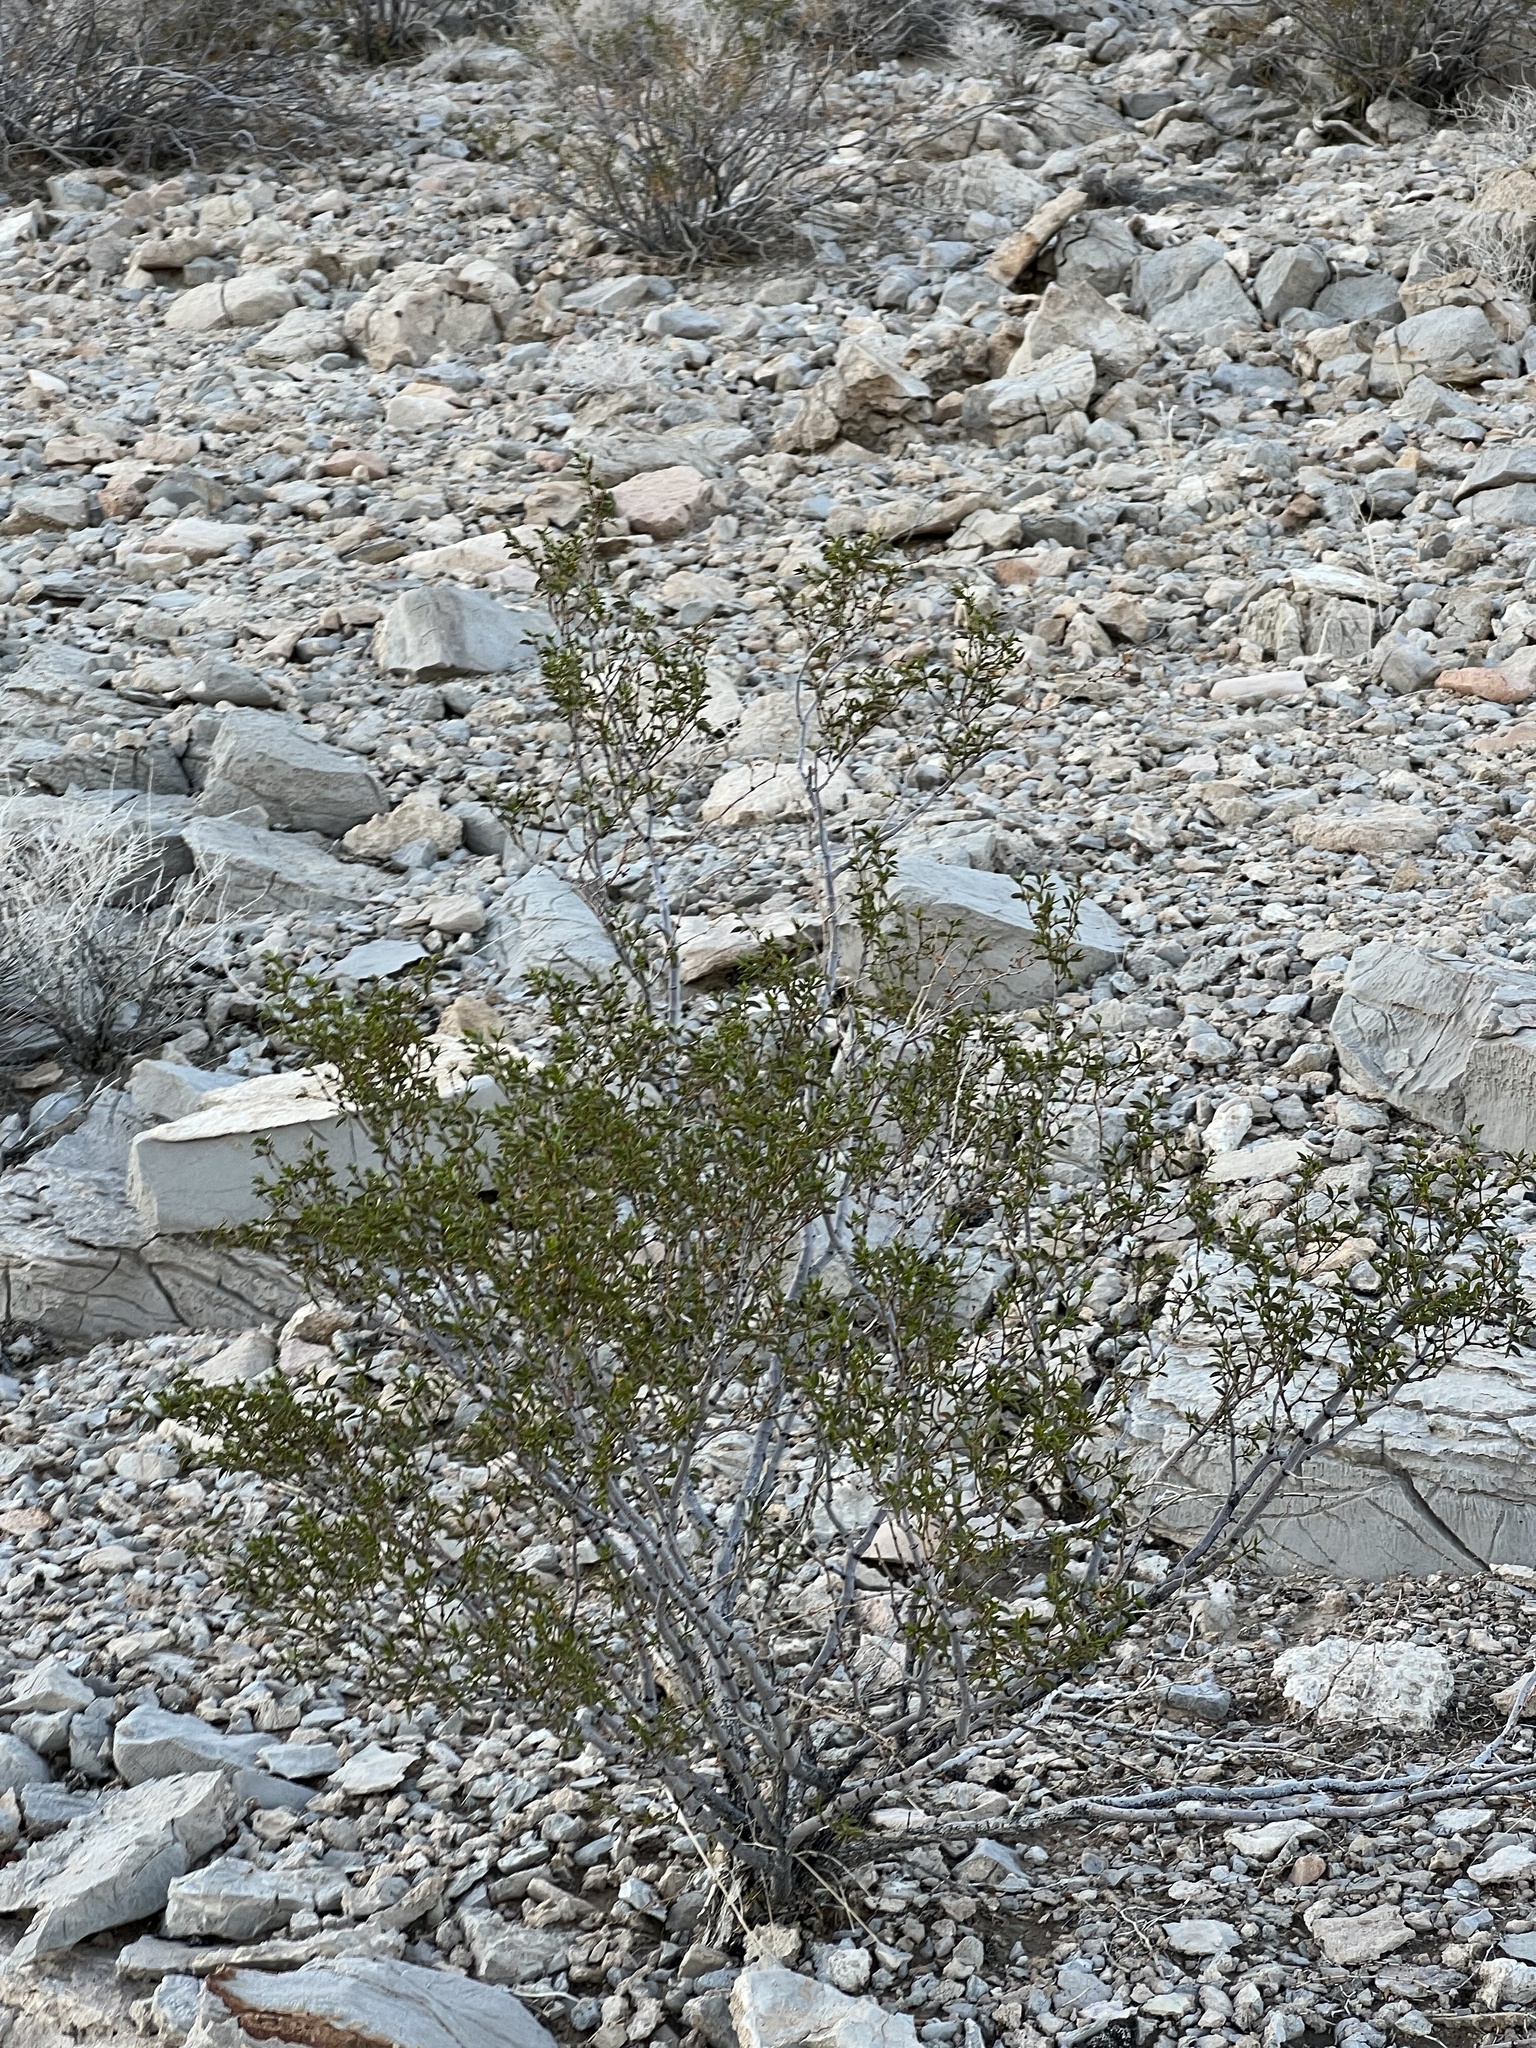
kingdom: Plantae
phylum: Tracheophyta
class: Magnoliopsida
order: Zygophyllales
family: Zygophyllaceae
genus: Larrea
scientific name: Larrea tridentata
